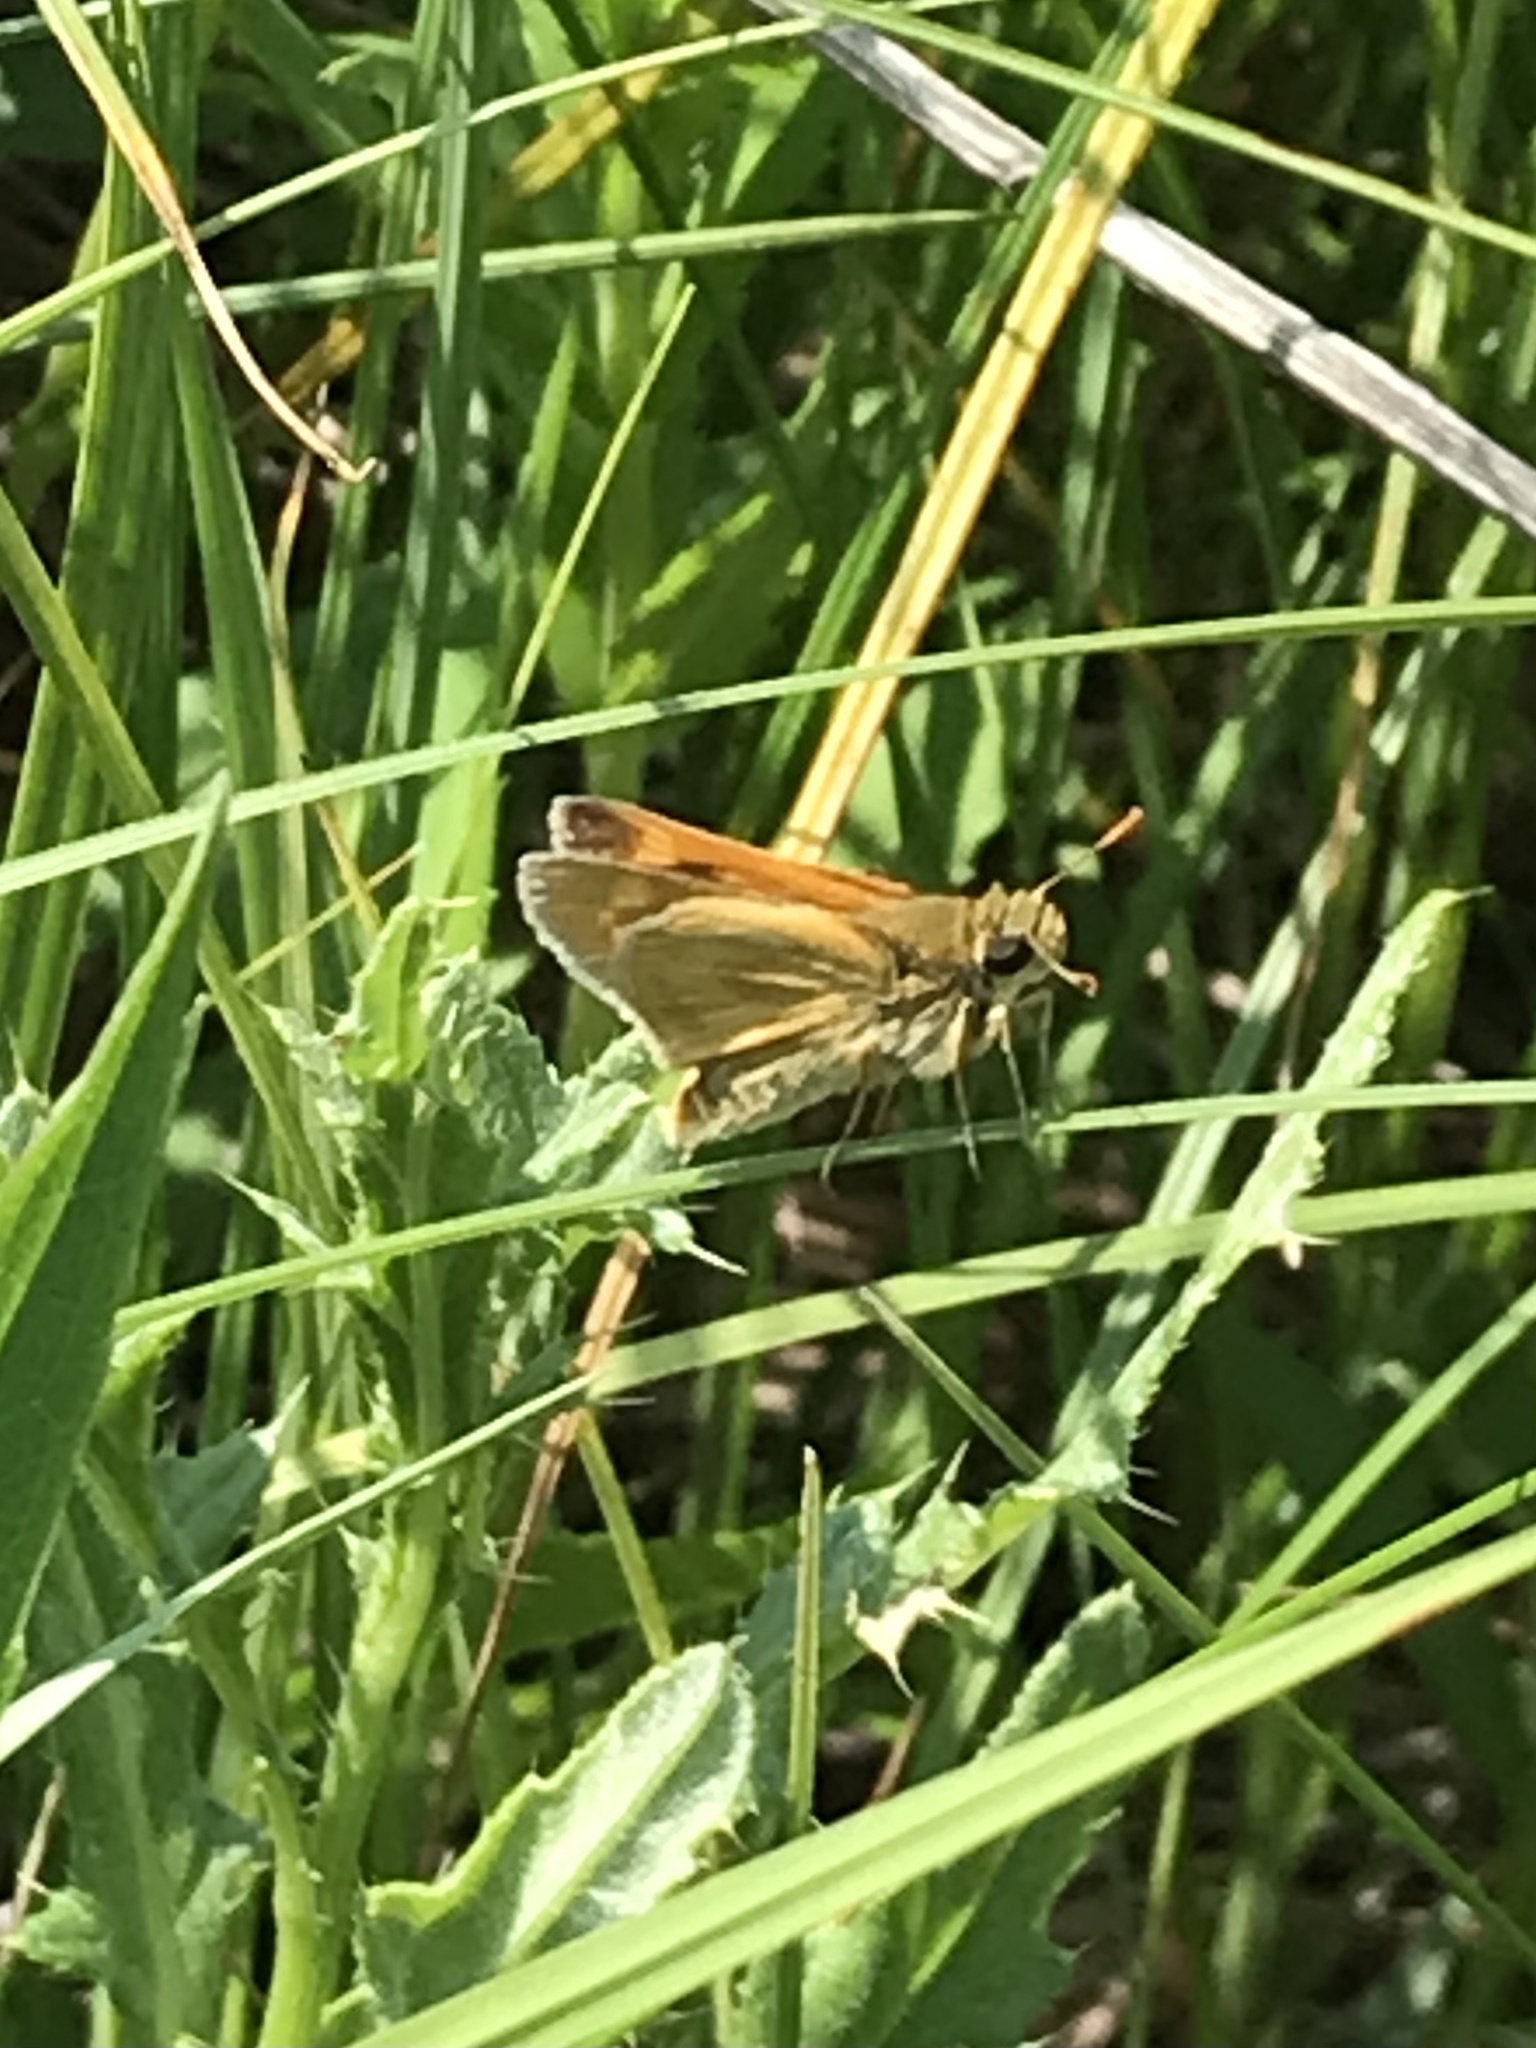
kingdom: Animalia
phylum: Arthropoda
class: Insecta
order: Lepidoptera
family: Hesperiidae
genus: Polites
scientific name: Polites mystic
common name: Long dash
